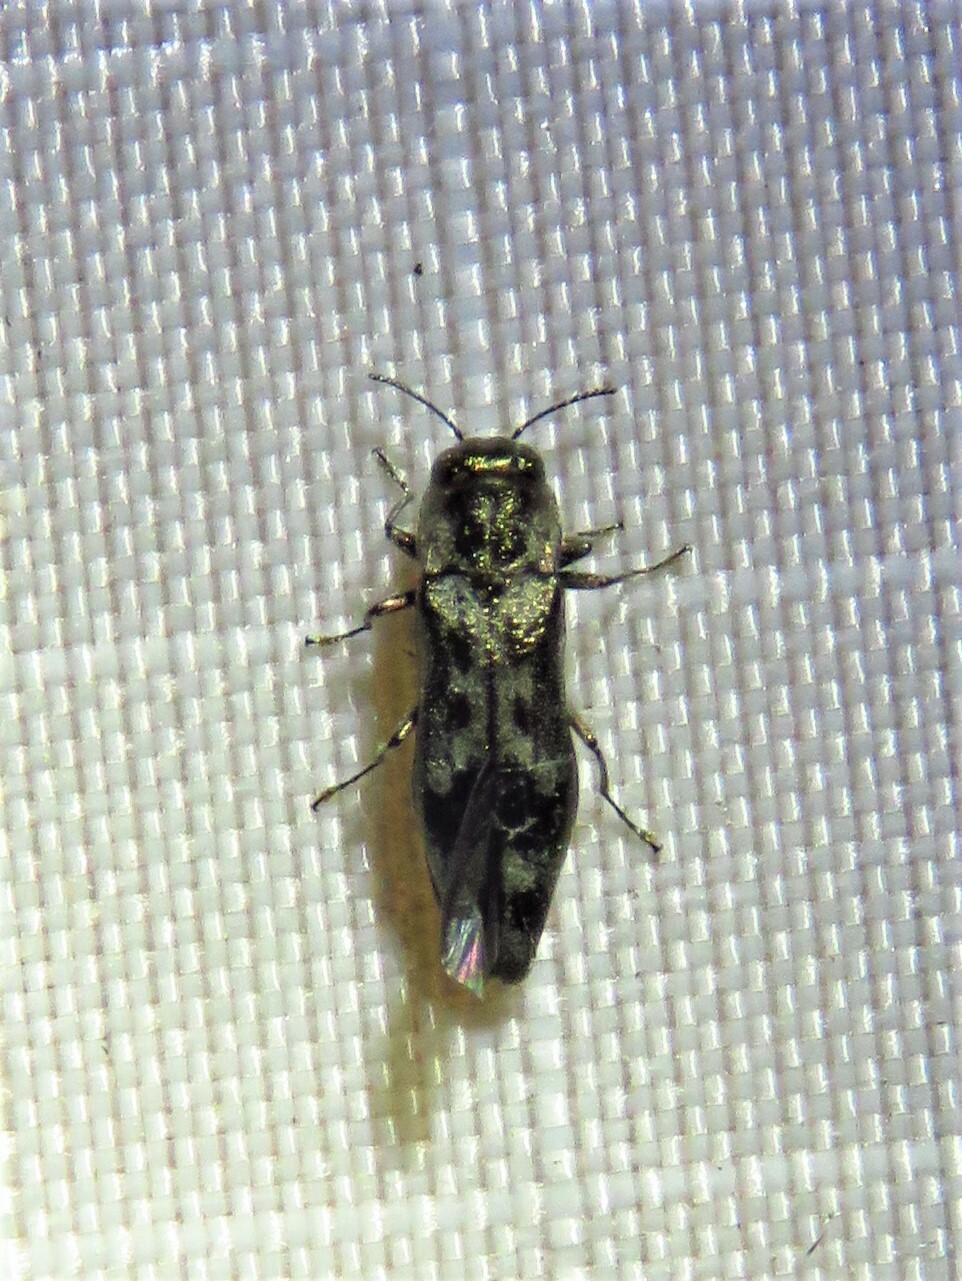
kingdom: Animalia
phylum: Arthropoda
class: Insecta
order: Coleoptera
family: Buprestidae
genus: Agrilus
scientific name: Agrilus lecontei
